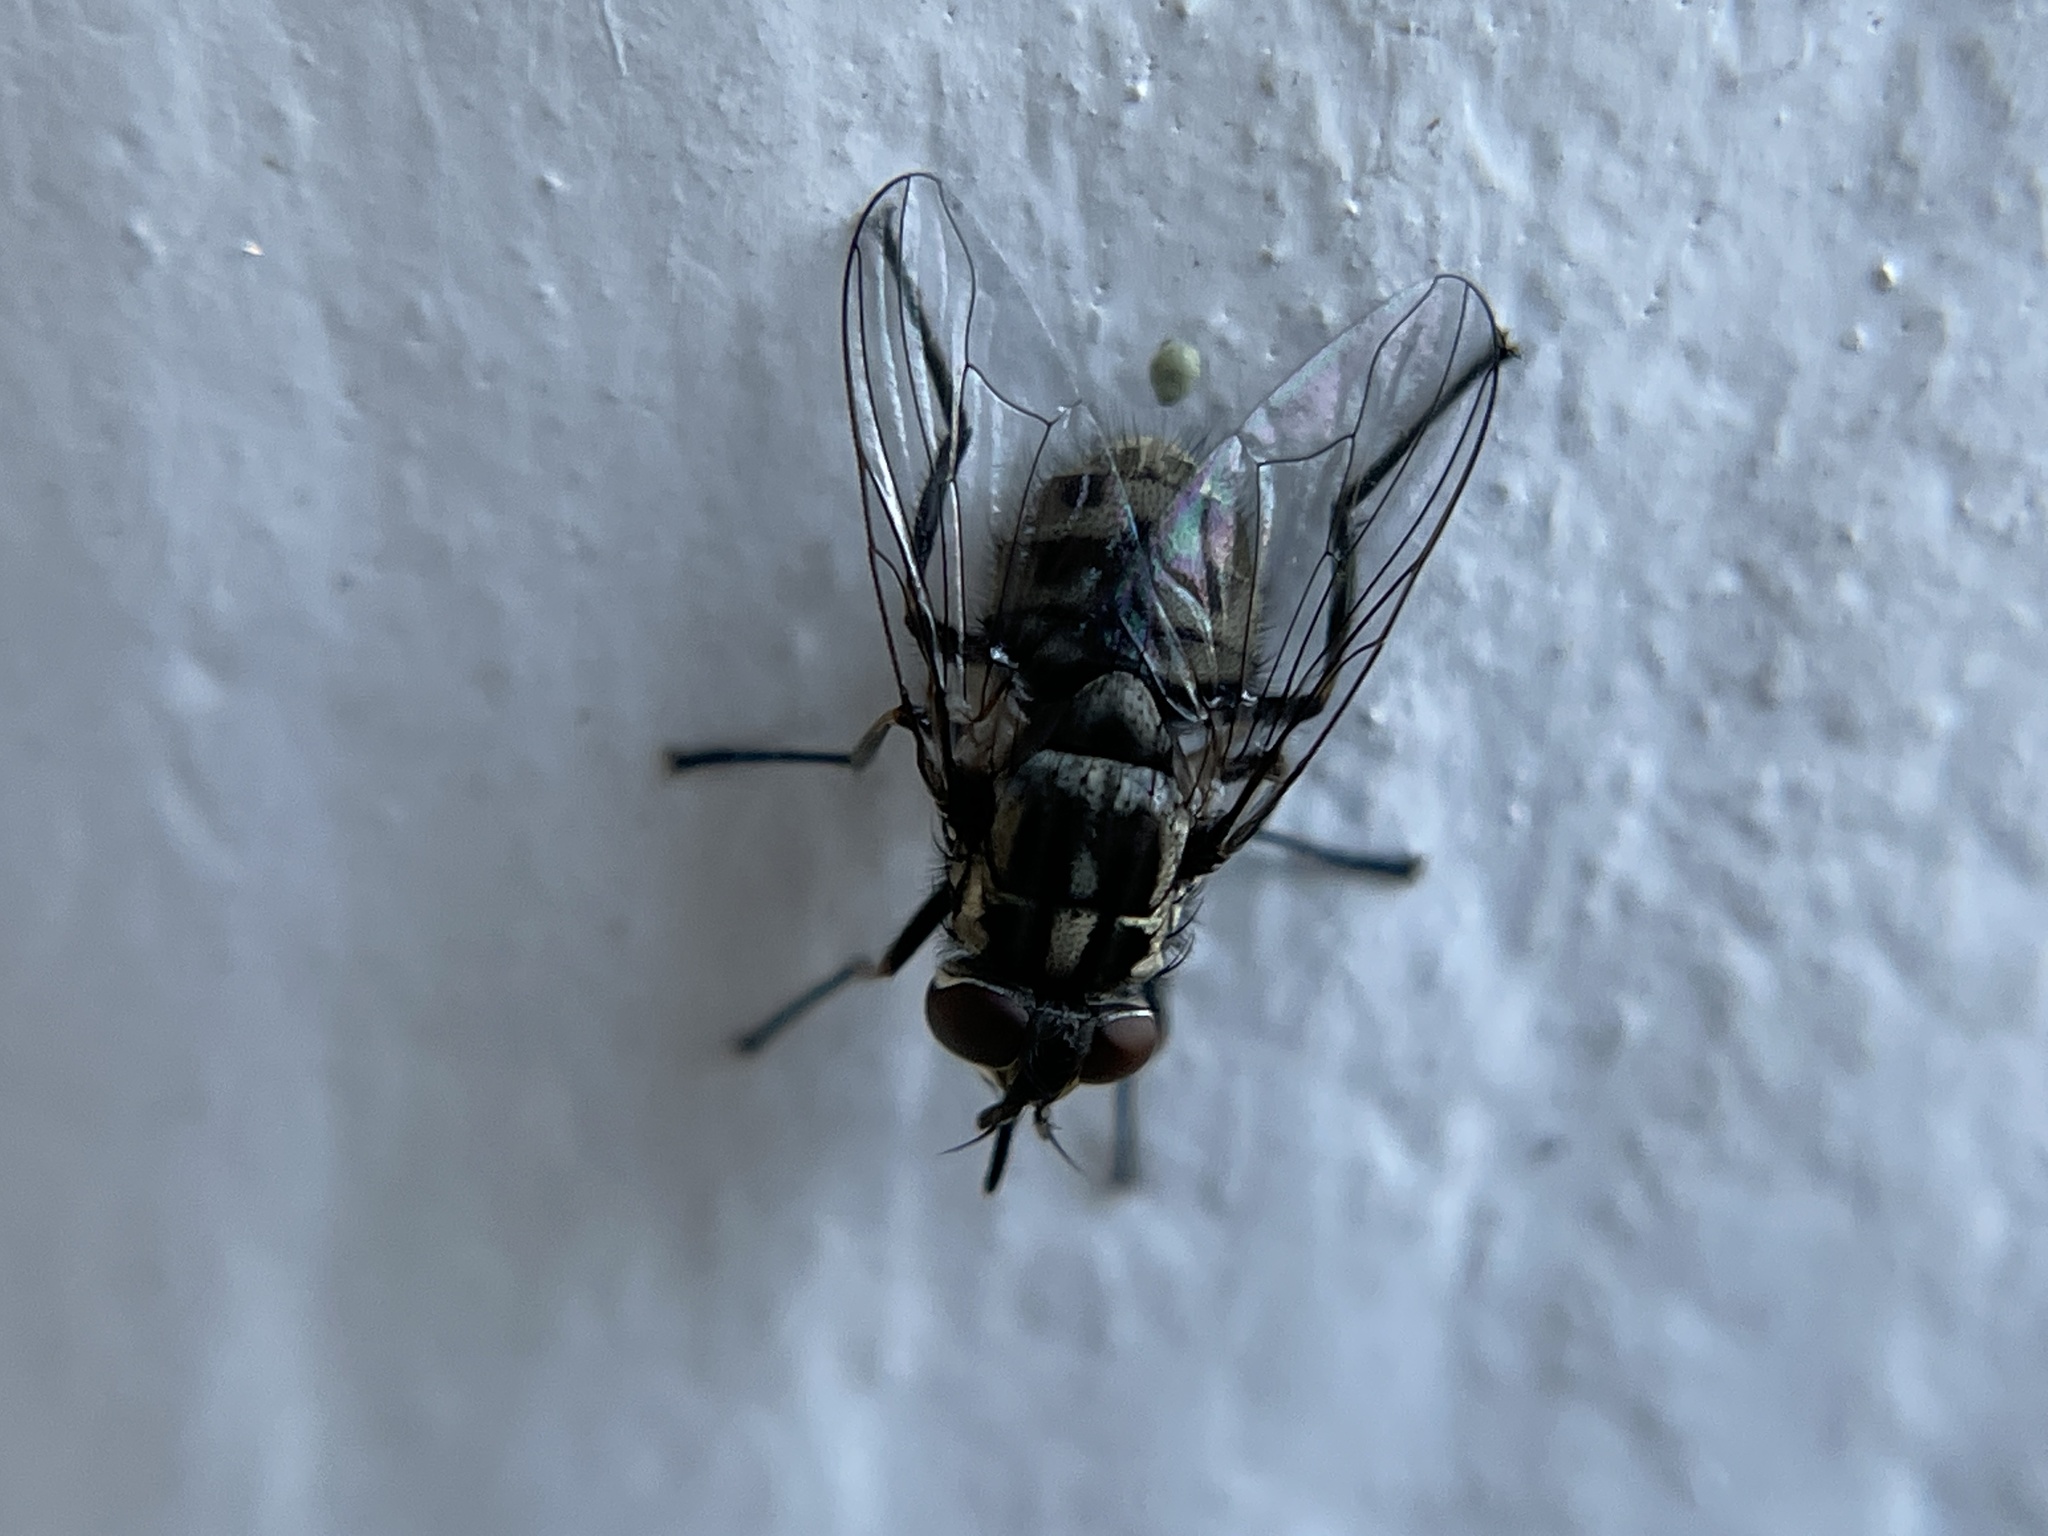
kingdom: Animalia
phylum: Arthropoda
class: Insecta
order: Diptera
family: Muscidae
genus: Stomoxys
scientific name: Stomoxys calcitrans
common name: Stable fly
